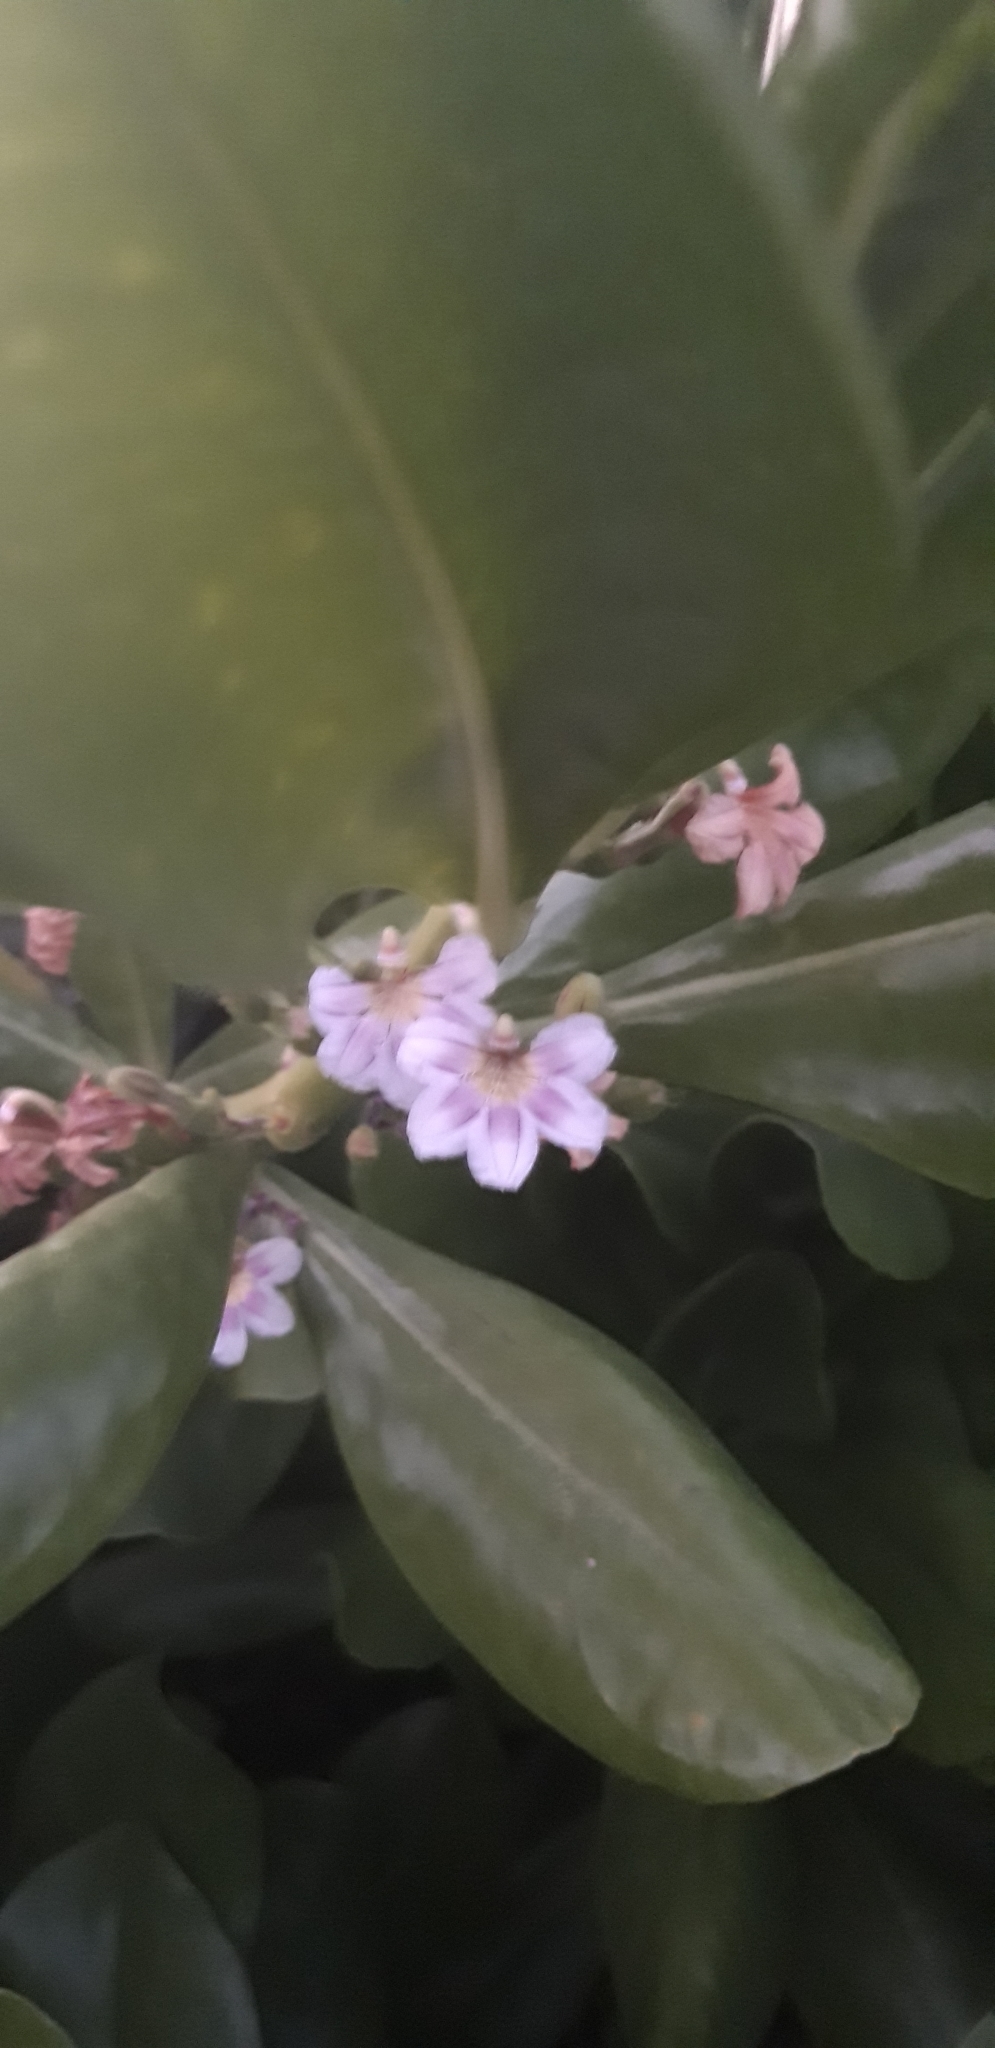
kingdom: Plantae
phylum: Tracheophyta
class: Magnoliopsida
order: Asterales
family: Goodeniaceae
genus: Scaevola
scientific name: Scaevola taccada
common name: Sea lettucetree
